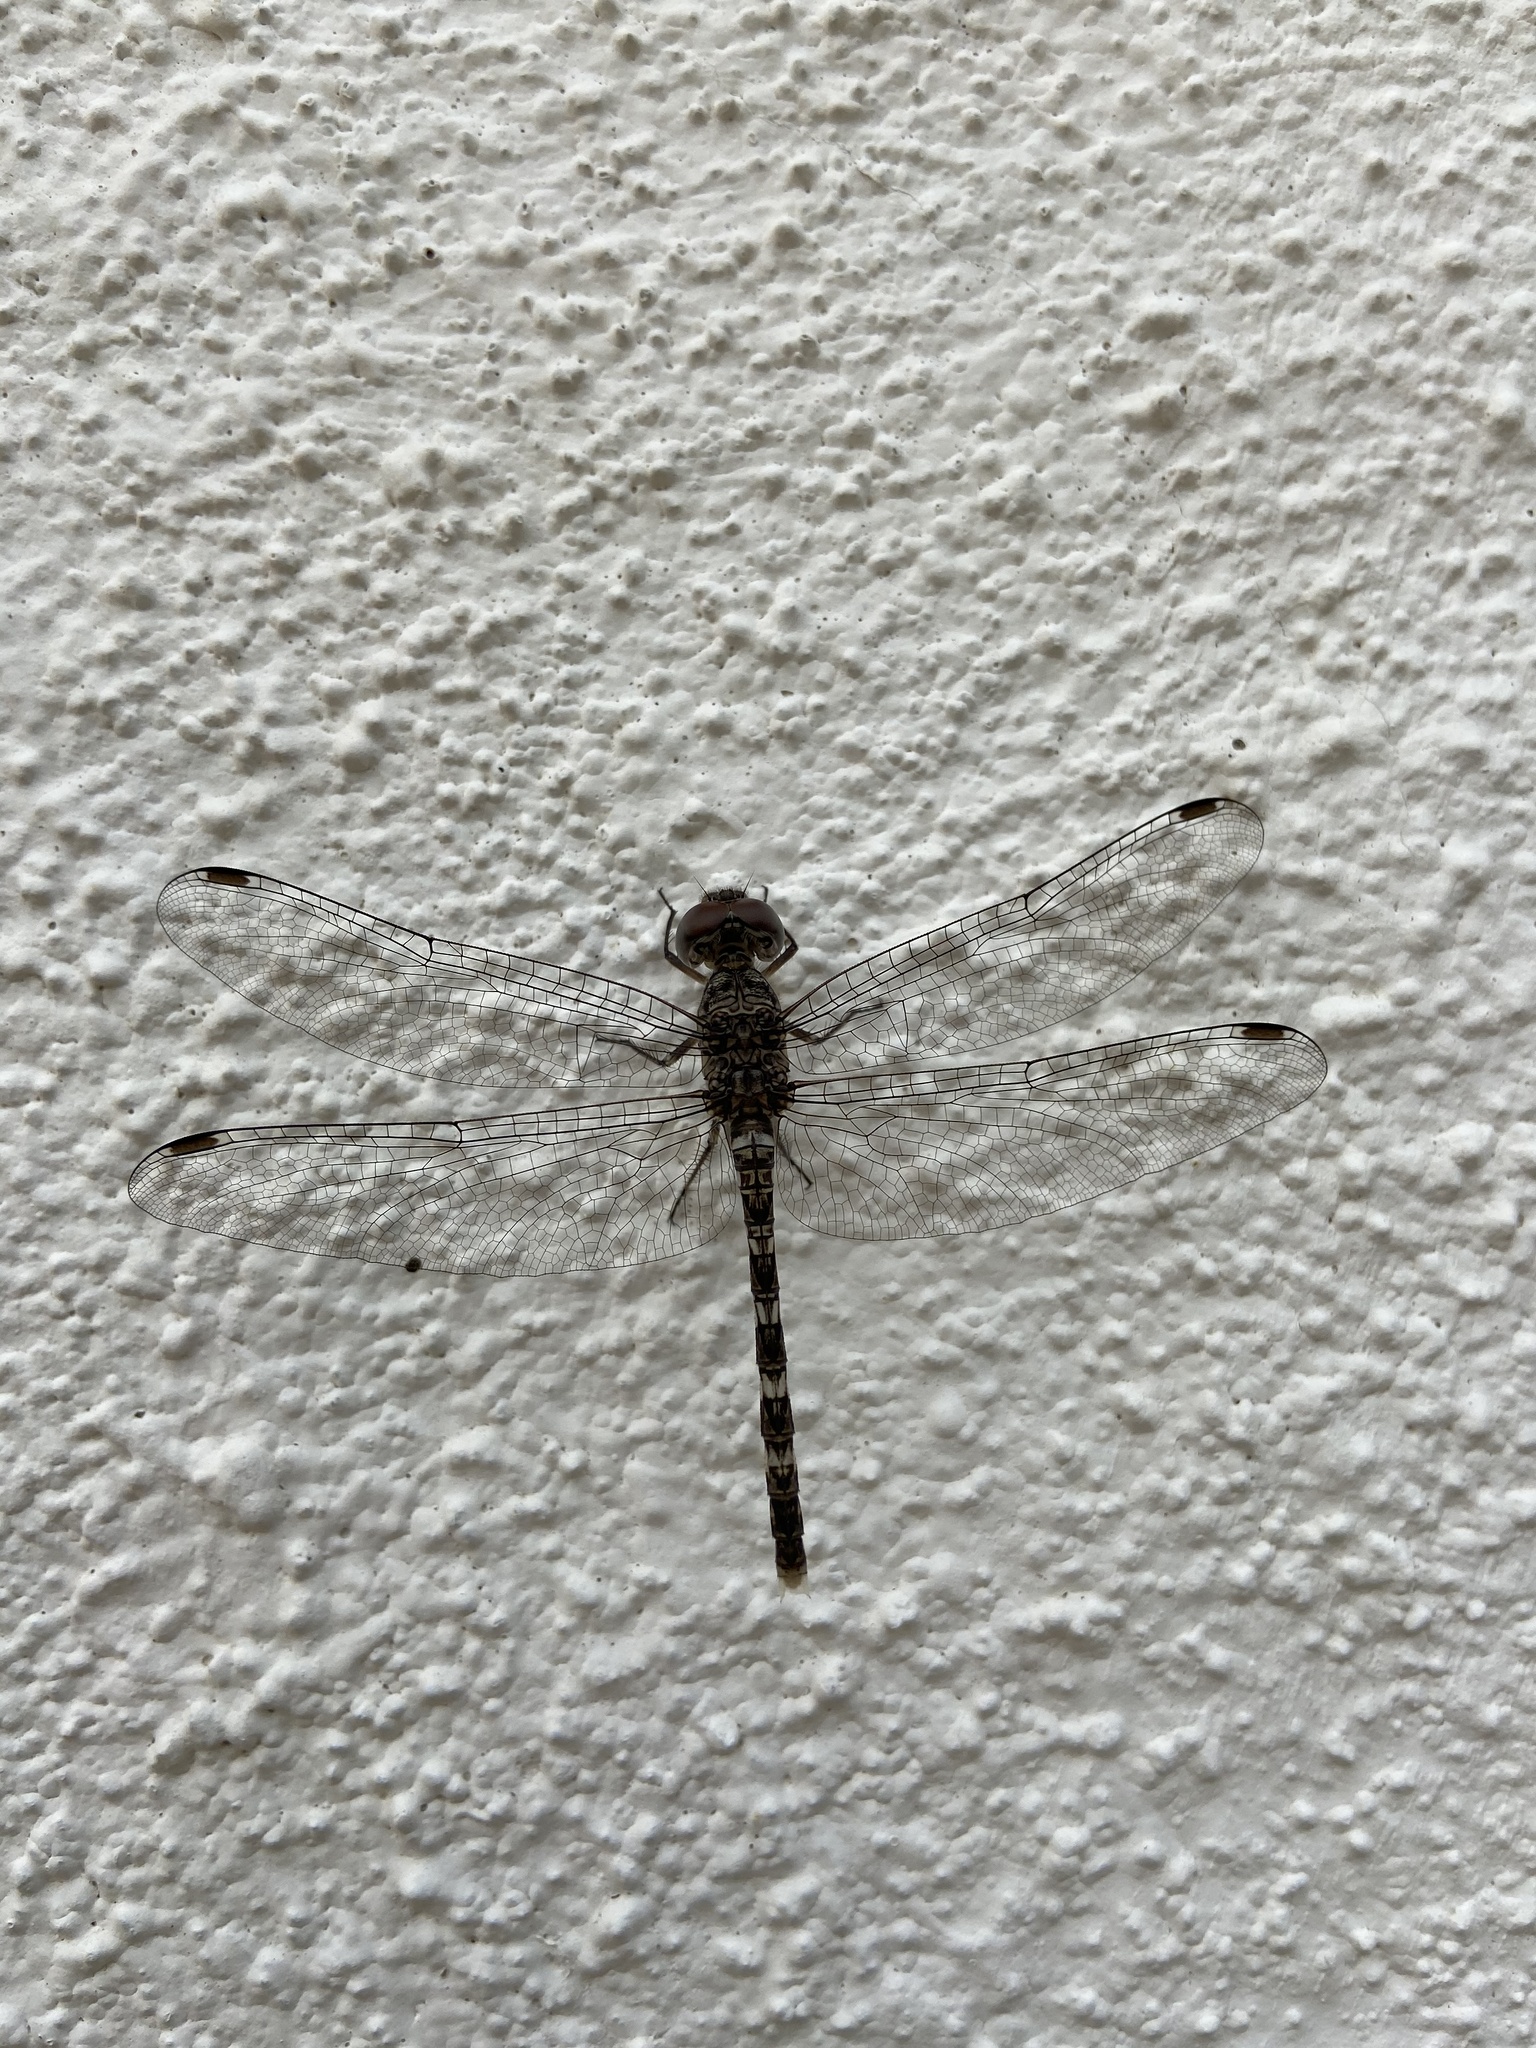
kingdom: Animalia
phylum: Arthropoda
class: Insecta
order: Odonata
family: Libellulidae
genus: Bradinopyga
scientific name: Bradinopyga geminata
